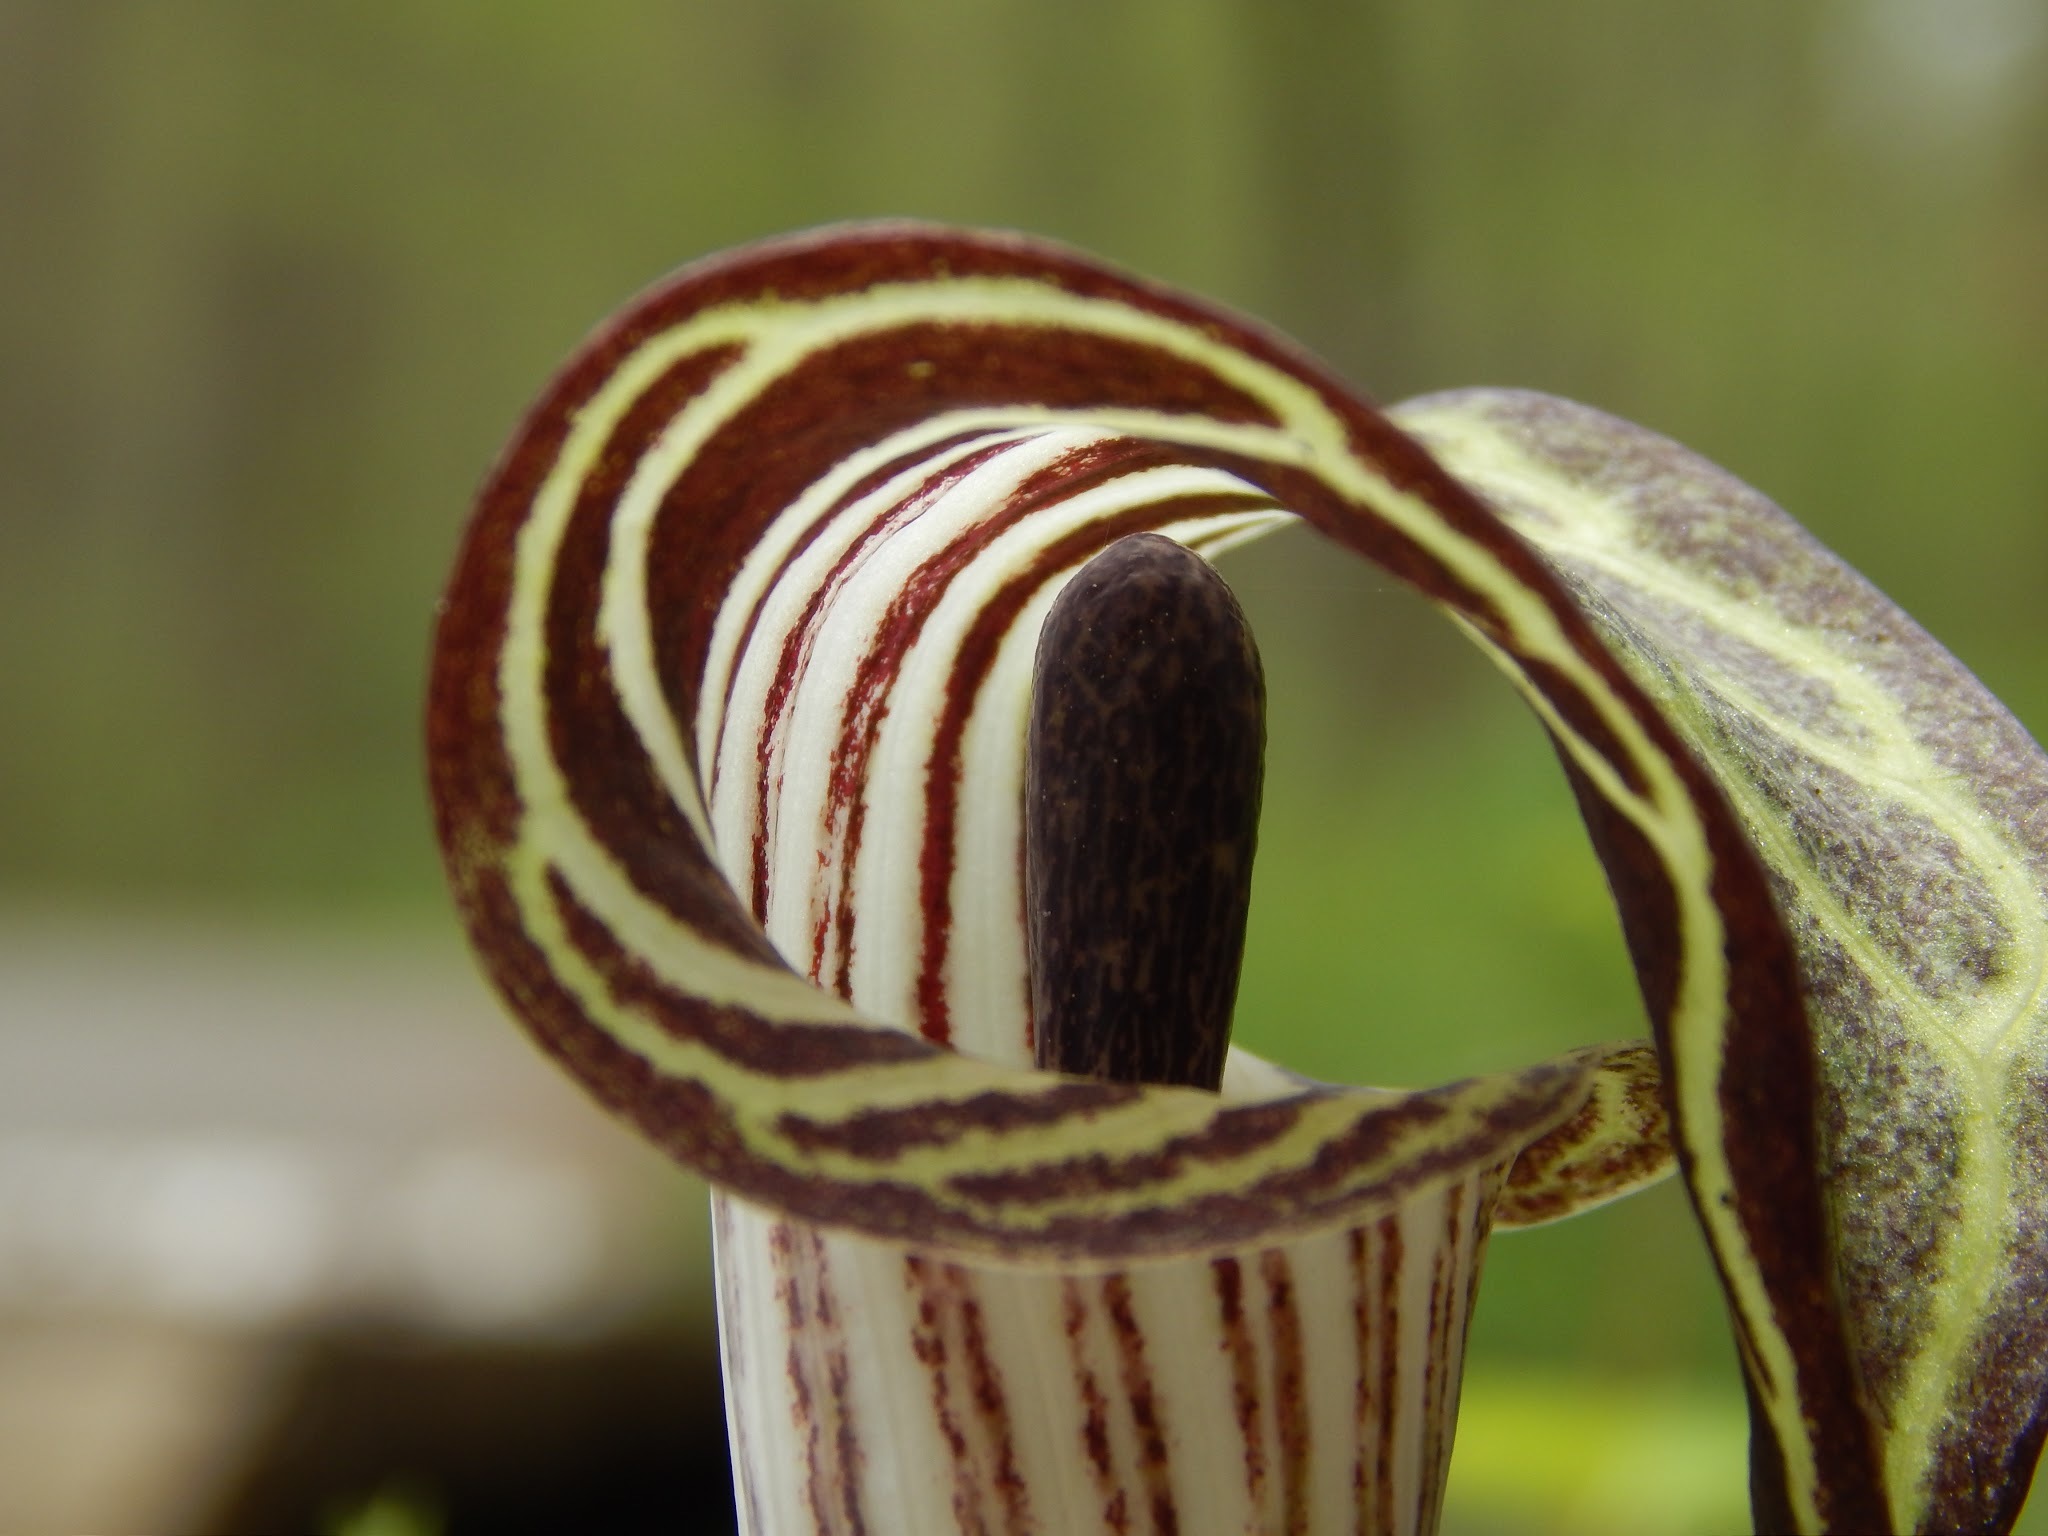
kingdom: Plantae
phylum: Tracheophyta
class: Liliopsida
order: Alismatales
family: Araceae
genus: Arisaema
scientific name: Arisaema triphyllum
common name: Jack-in-the-pulpit
